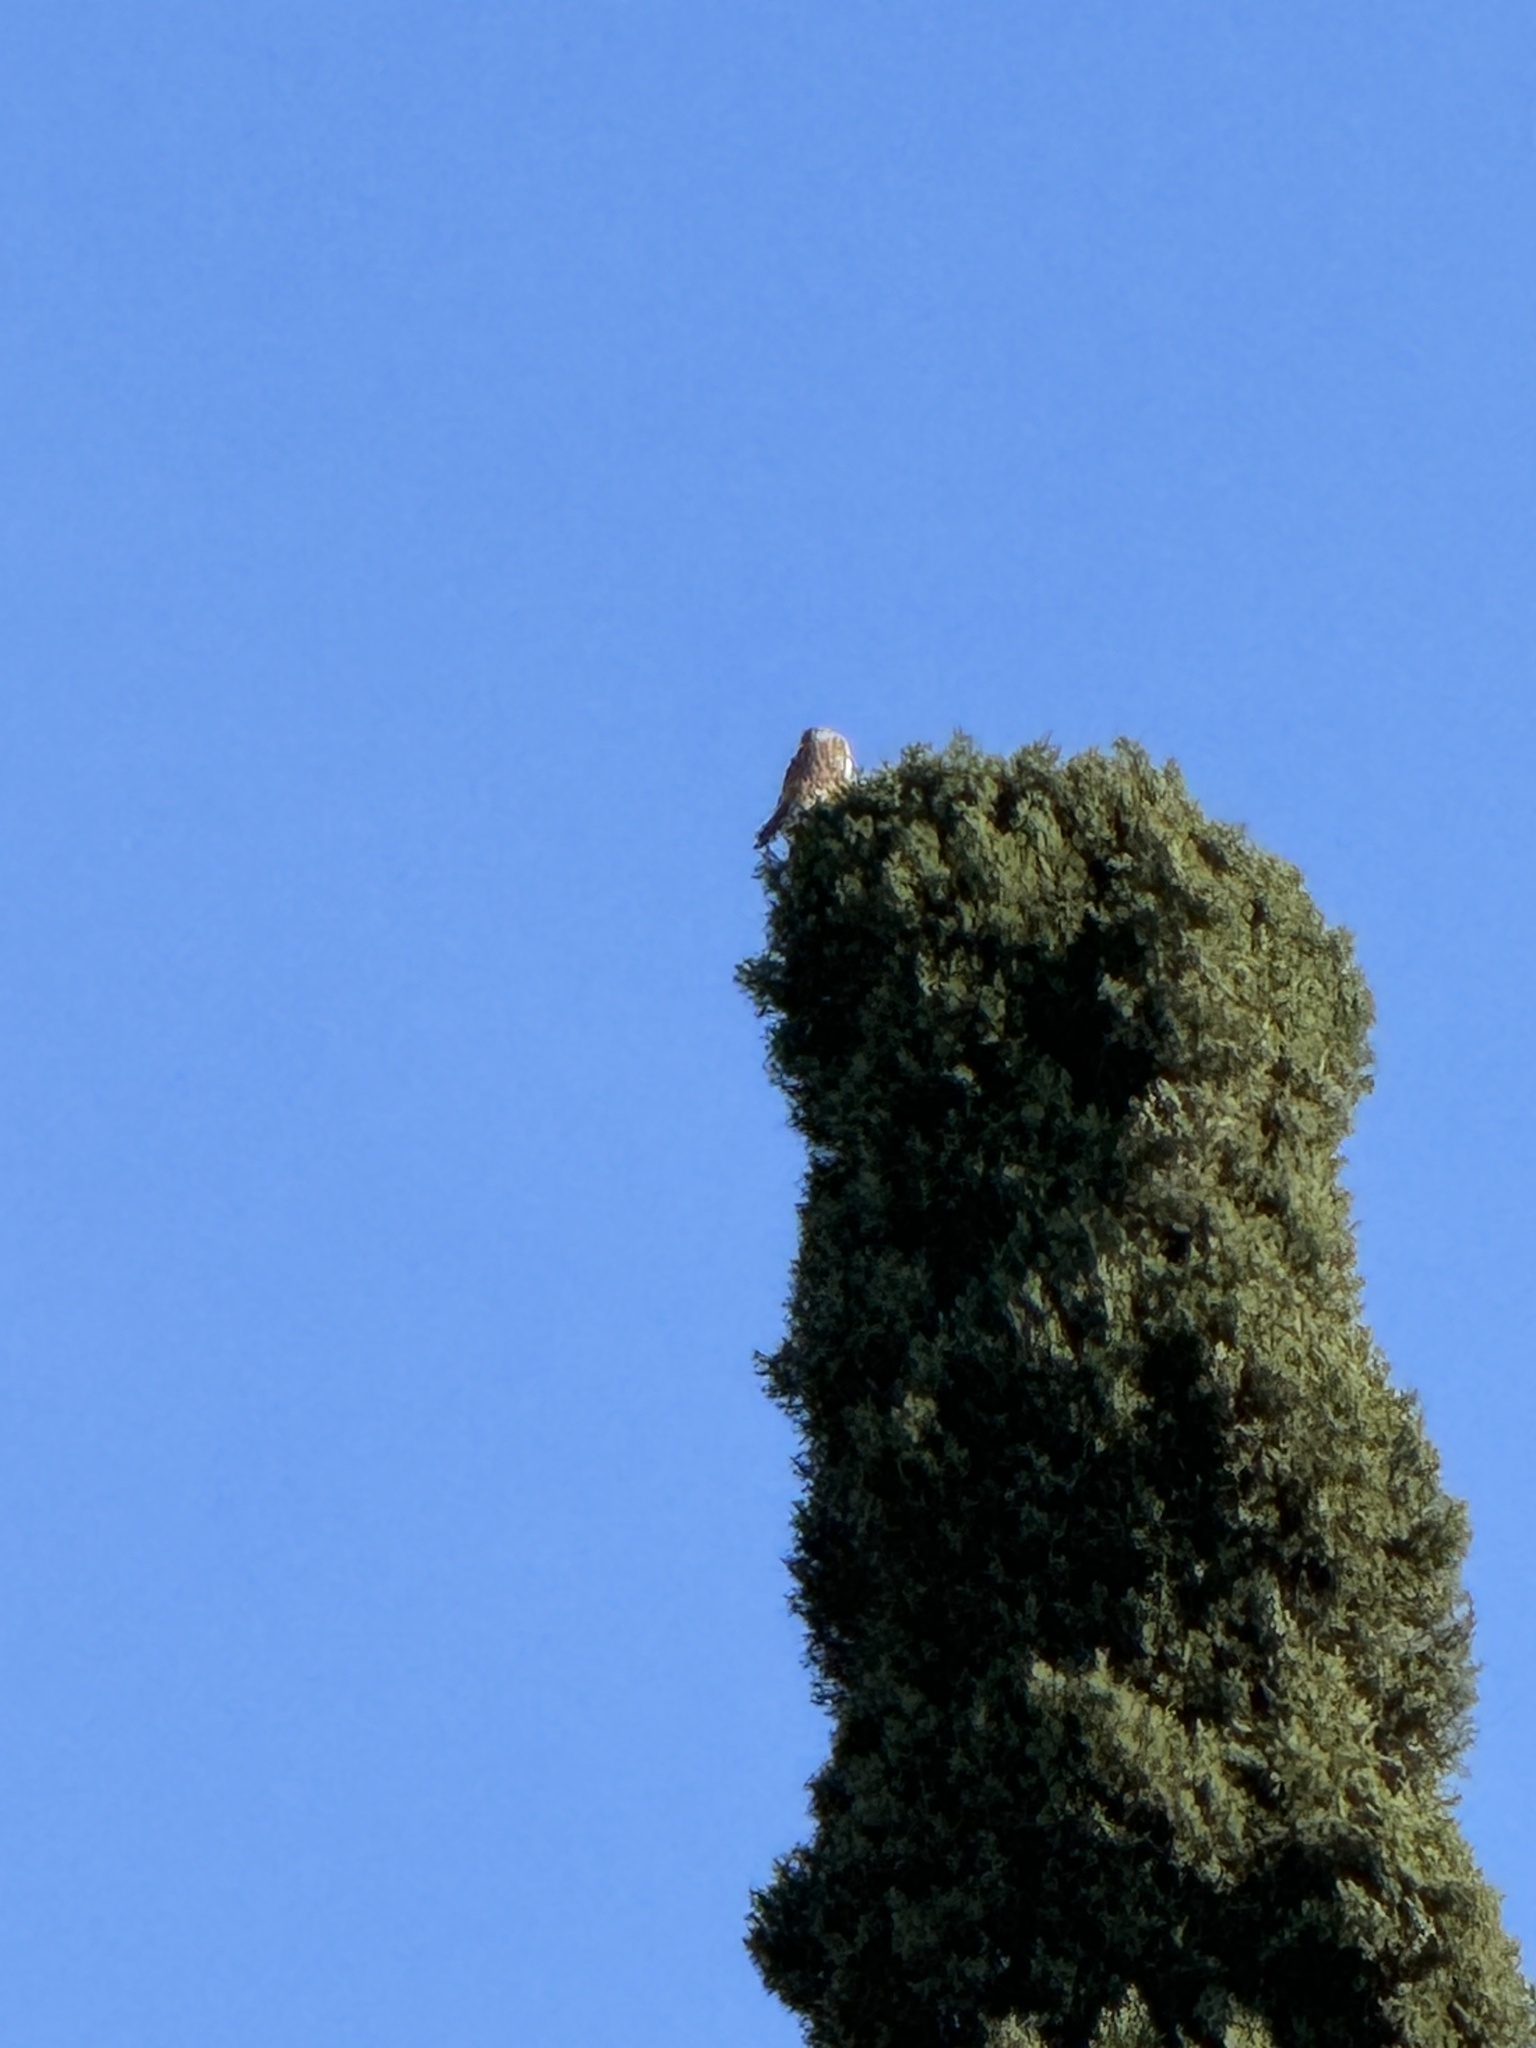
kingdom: Animalia
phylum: Chordata
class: Aves
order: Falconiformes
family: Falconidae
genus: Falco
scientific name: Falco sparverius
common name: American kestrel
